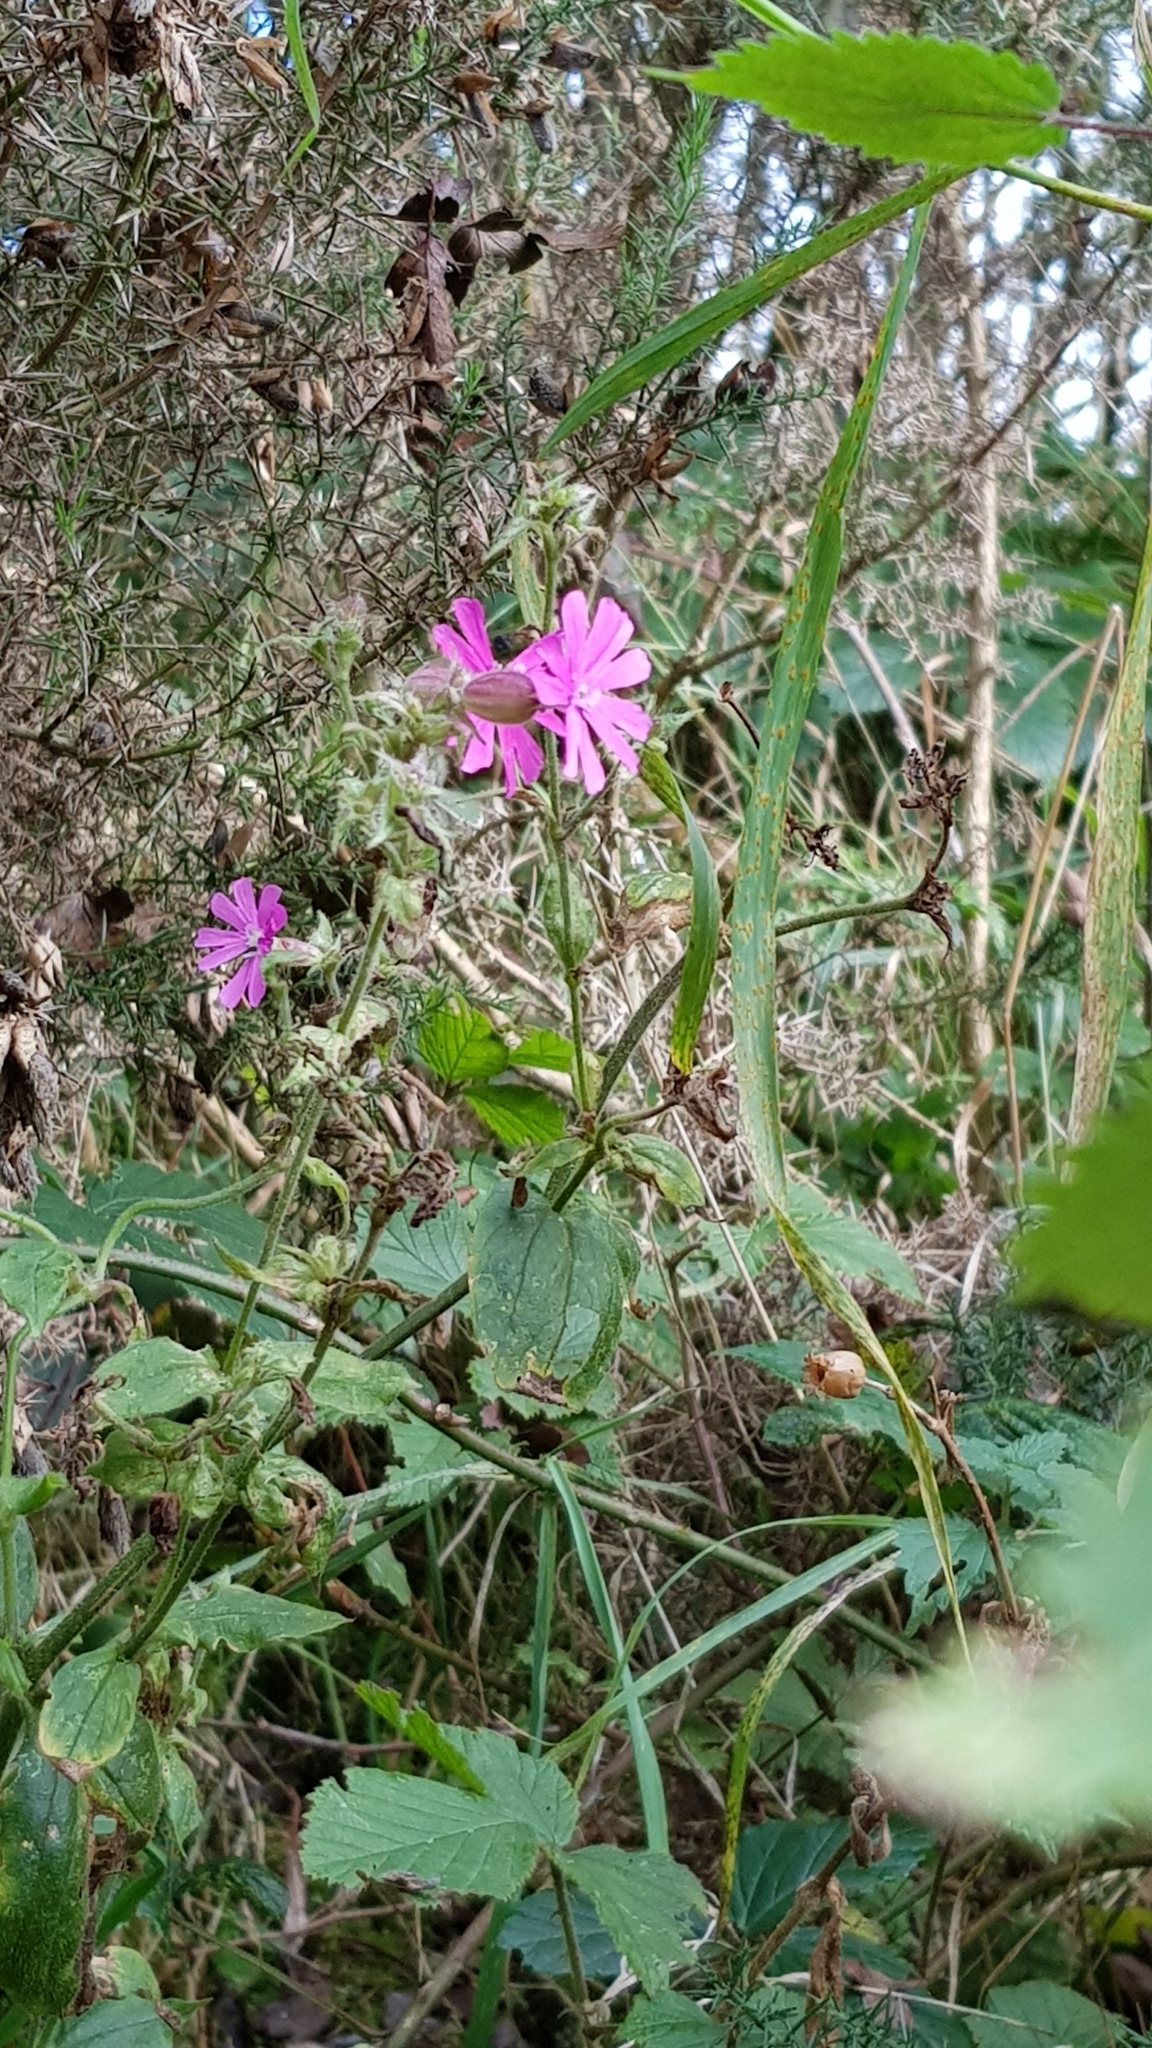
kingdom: Plantae
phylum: Tracheophyta
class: Magnoliopsida
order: Caryophyllales
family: Caryophyllaceae
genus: Silene
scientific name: Silene dioica
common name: Red campion
